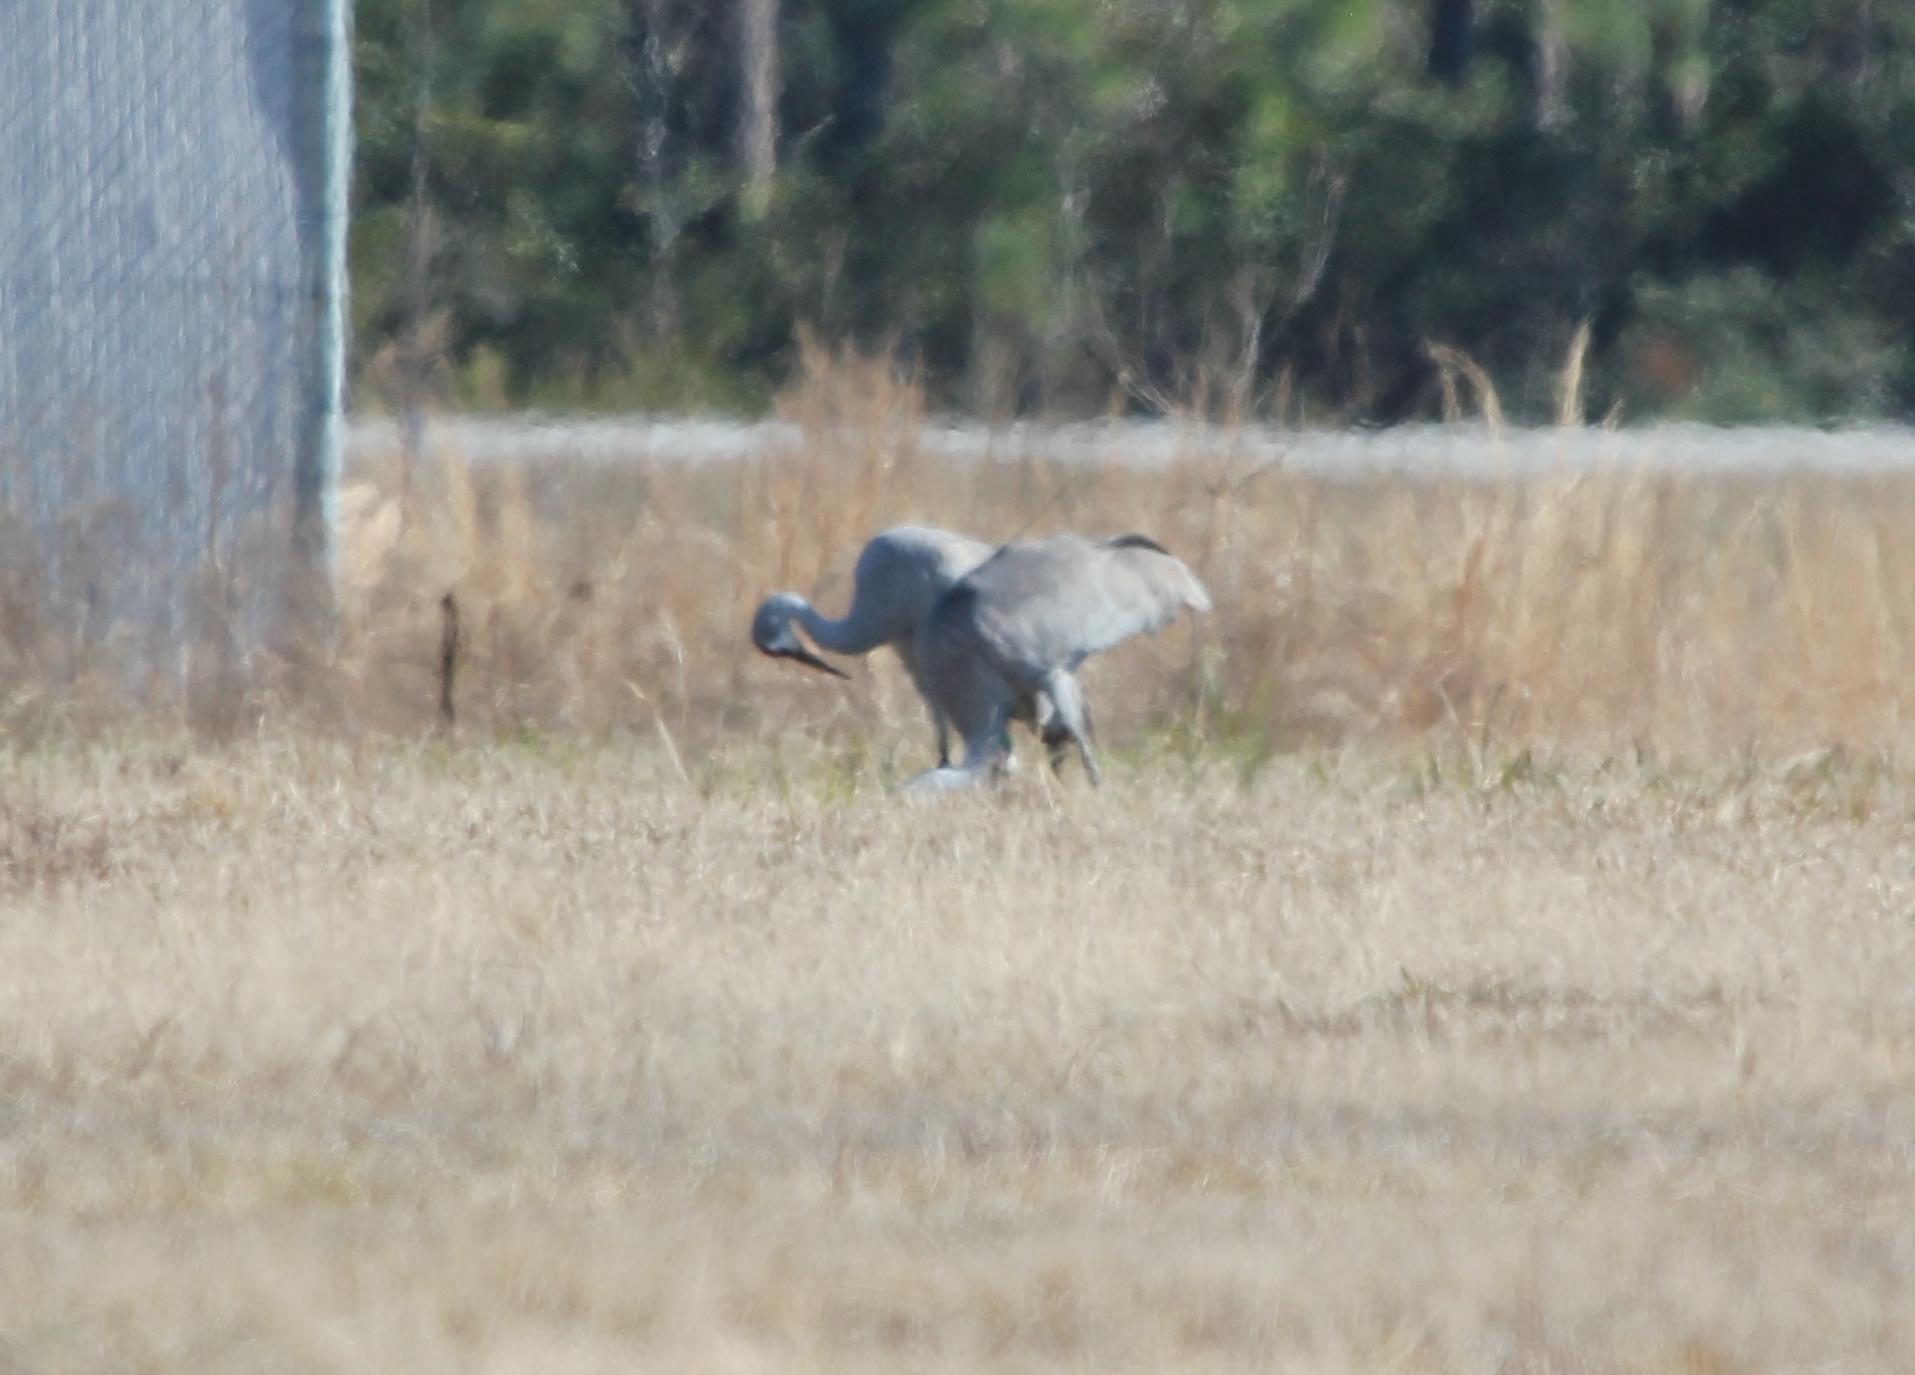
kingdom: Animalia
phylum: Chordata
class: Aves
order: Gruiformes
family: Gruidae
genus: Grus
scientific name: Grus canadensis
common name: Sandhill crane
